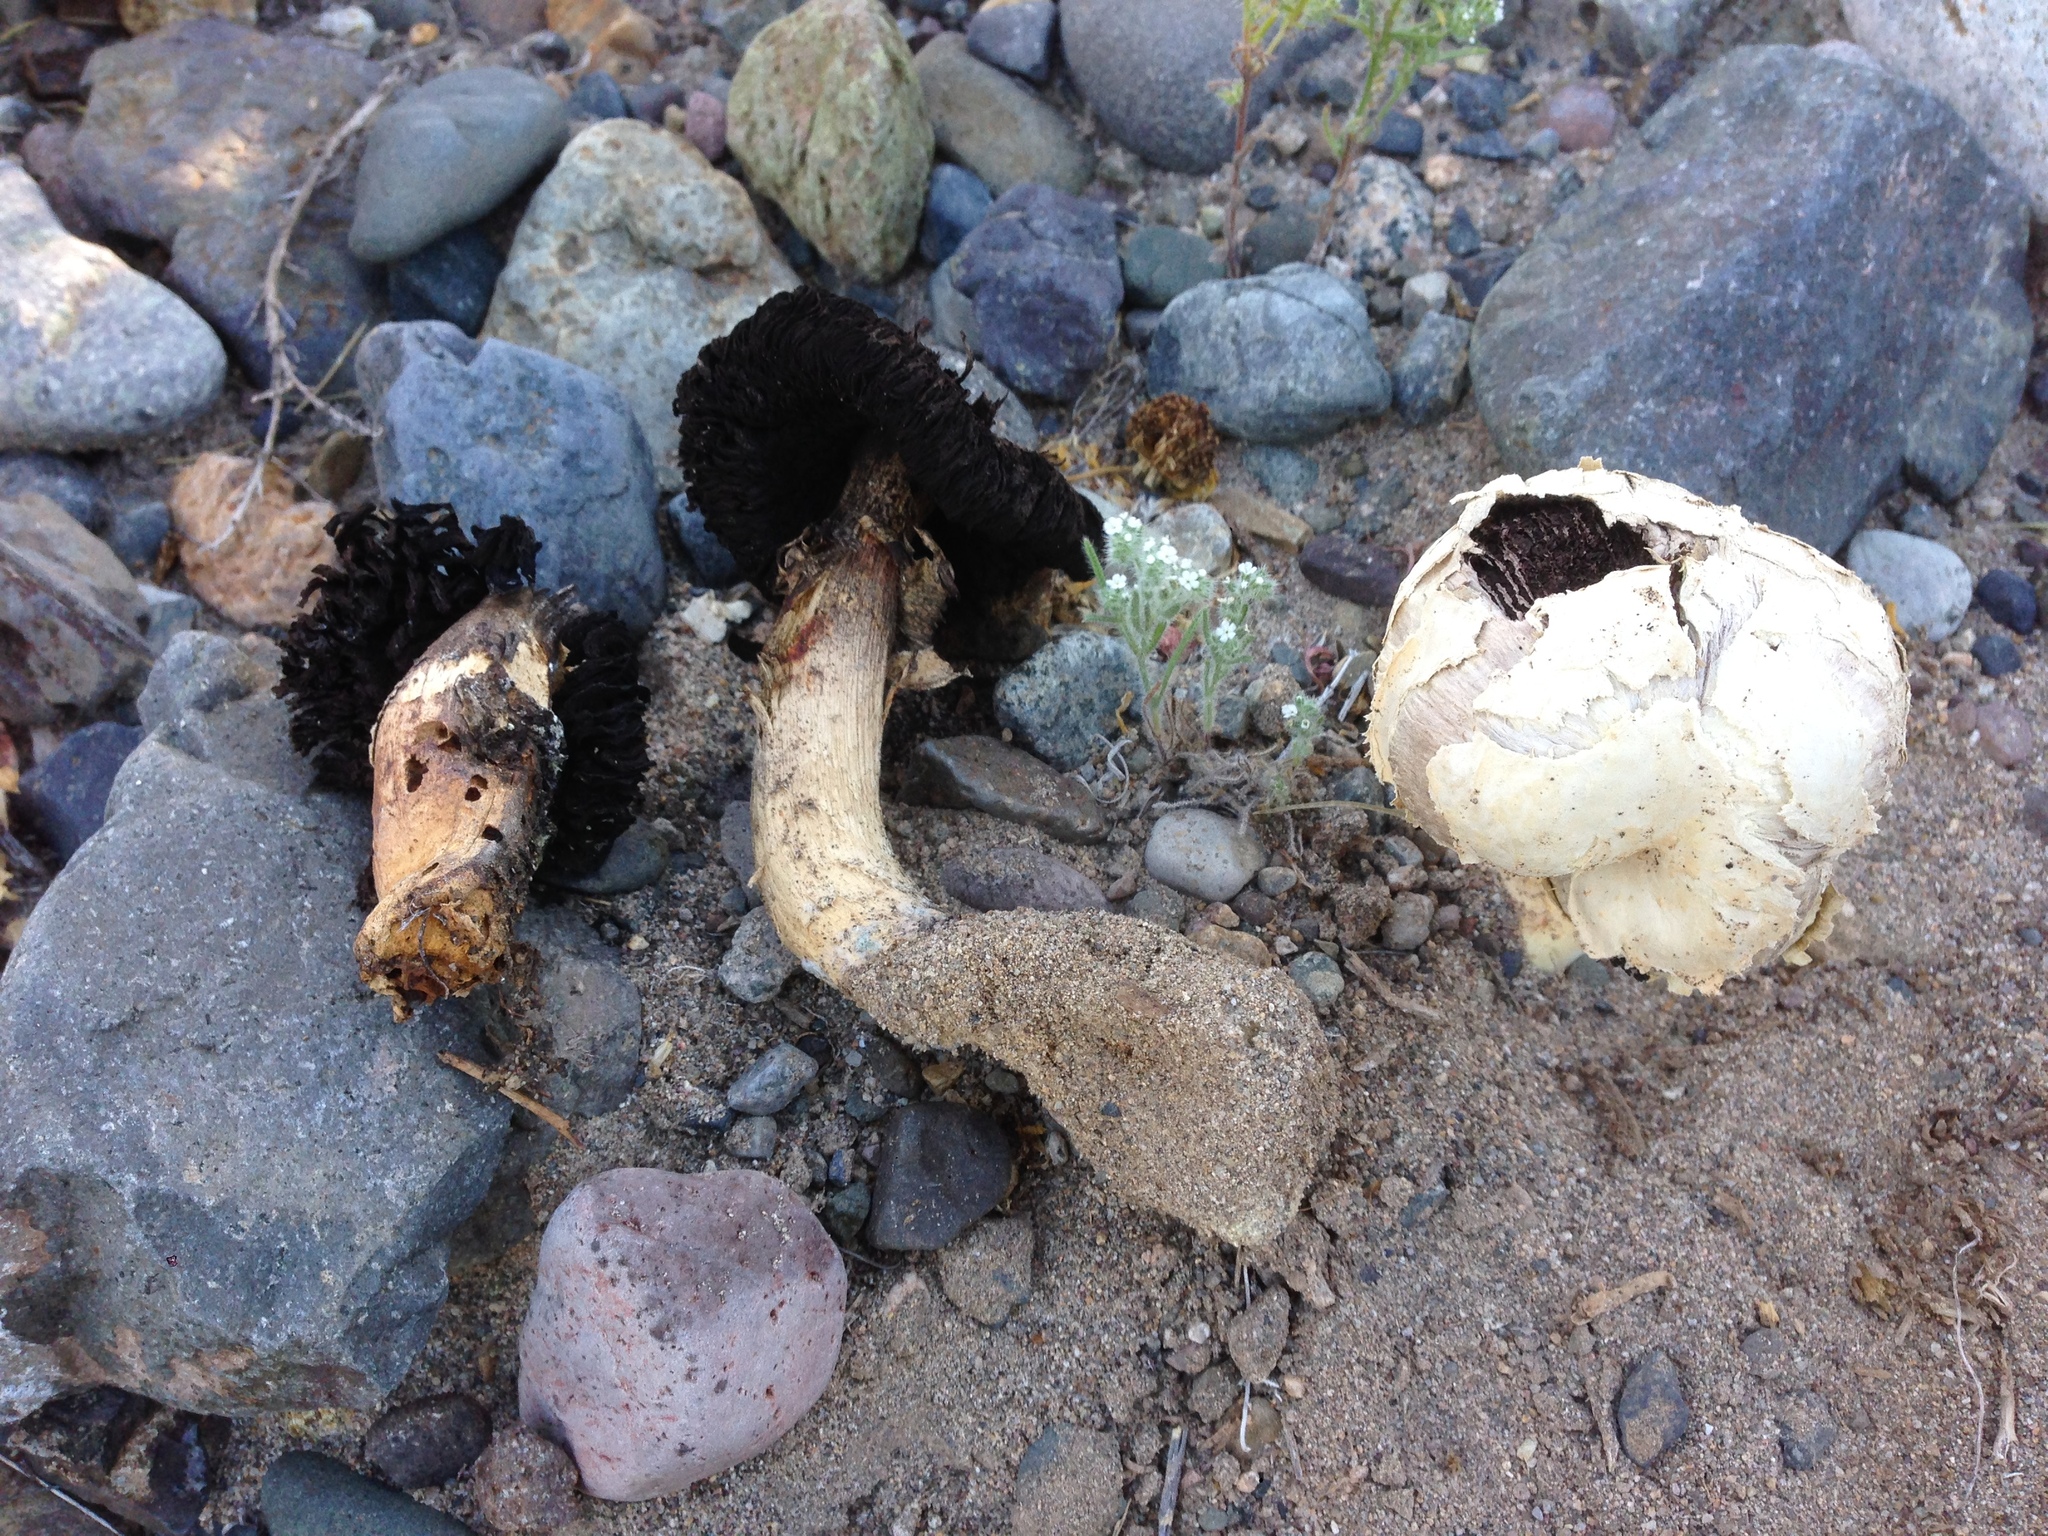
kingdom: Fungi
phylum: Basidiomycota
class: Agaricomycetes
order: Agaricales
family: Agaricaceae
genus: Agaricus
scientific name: Agaricus deserticola
